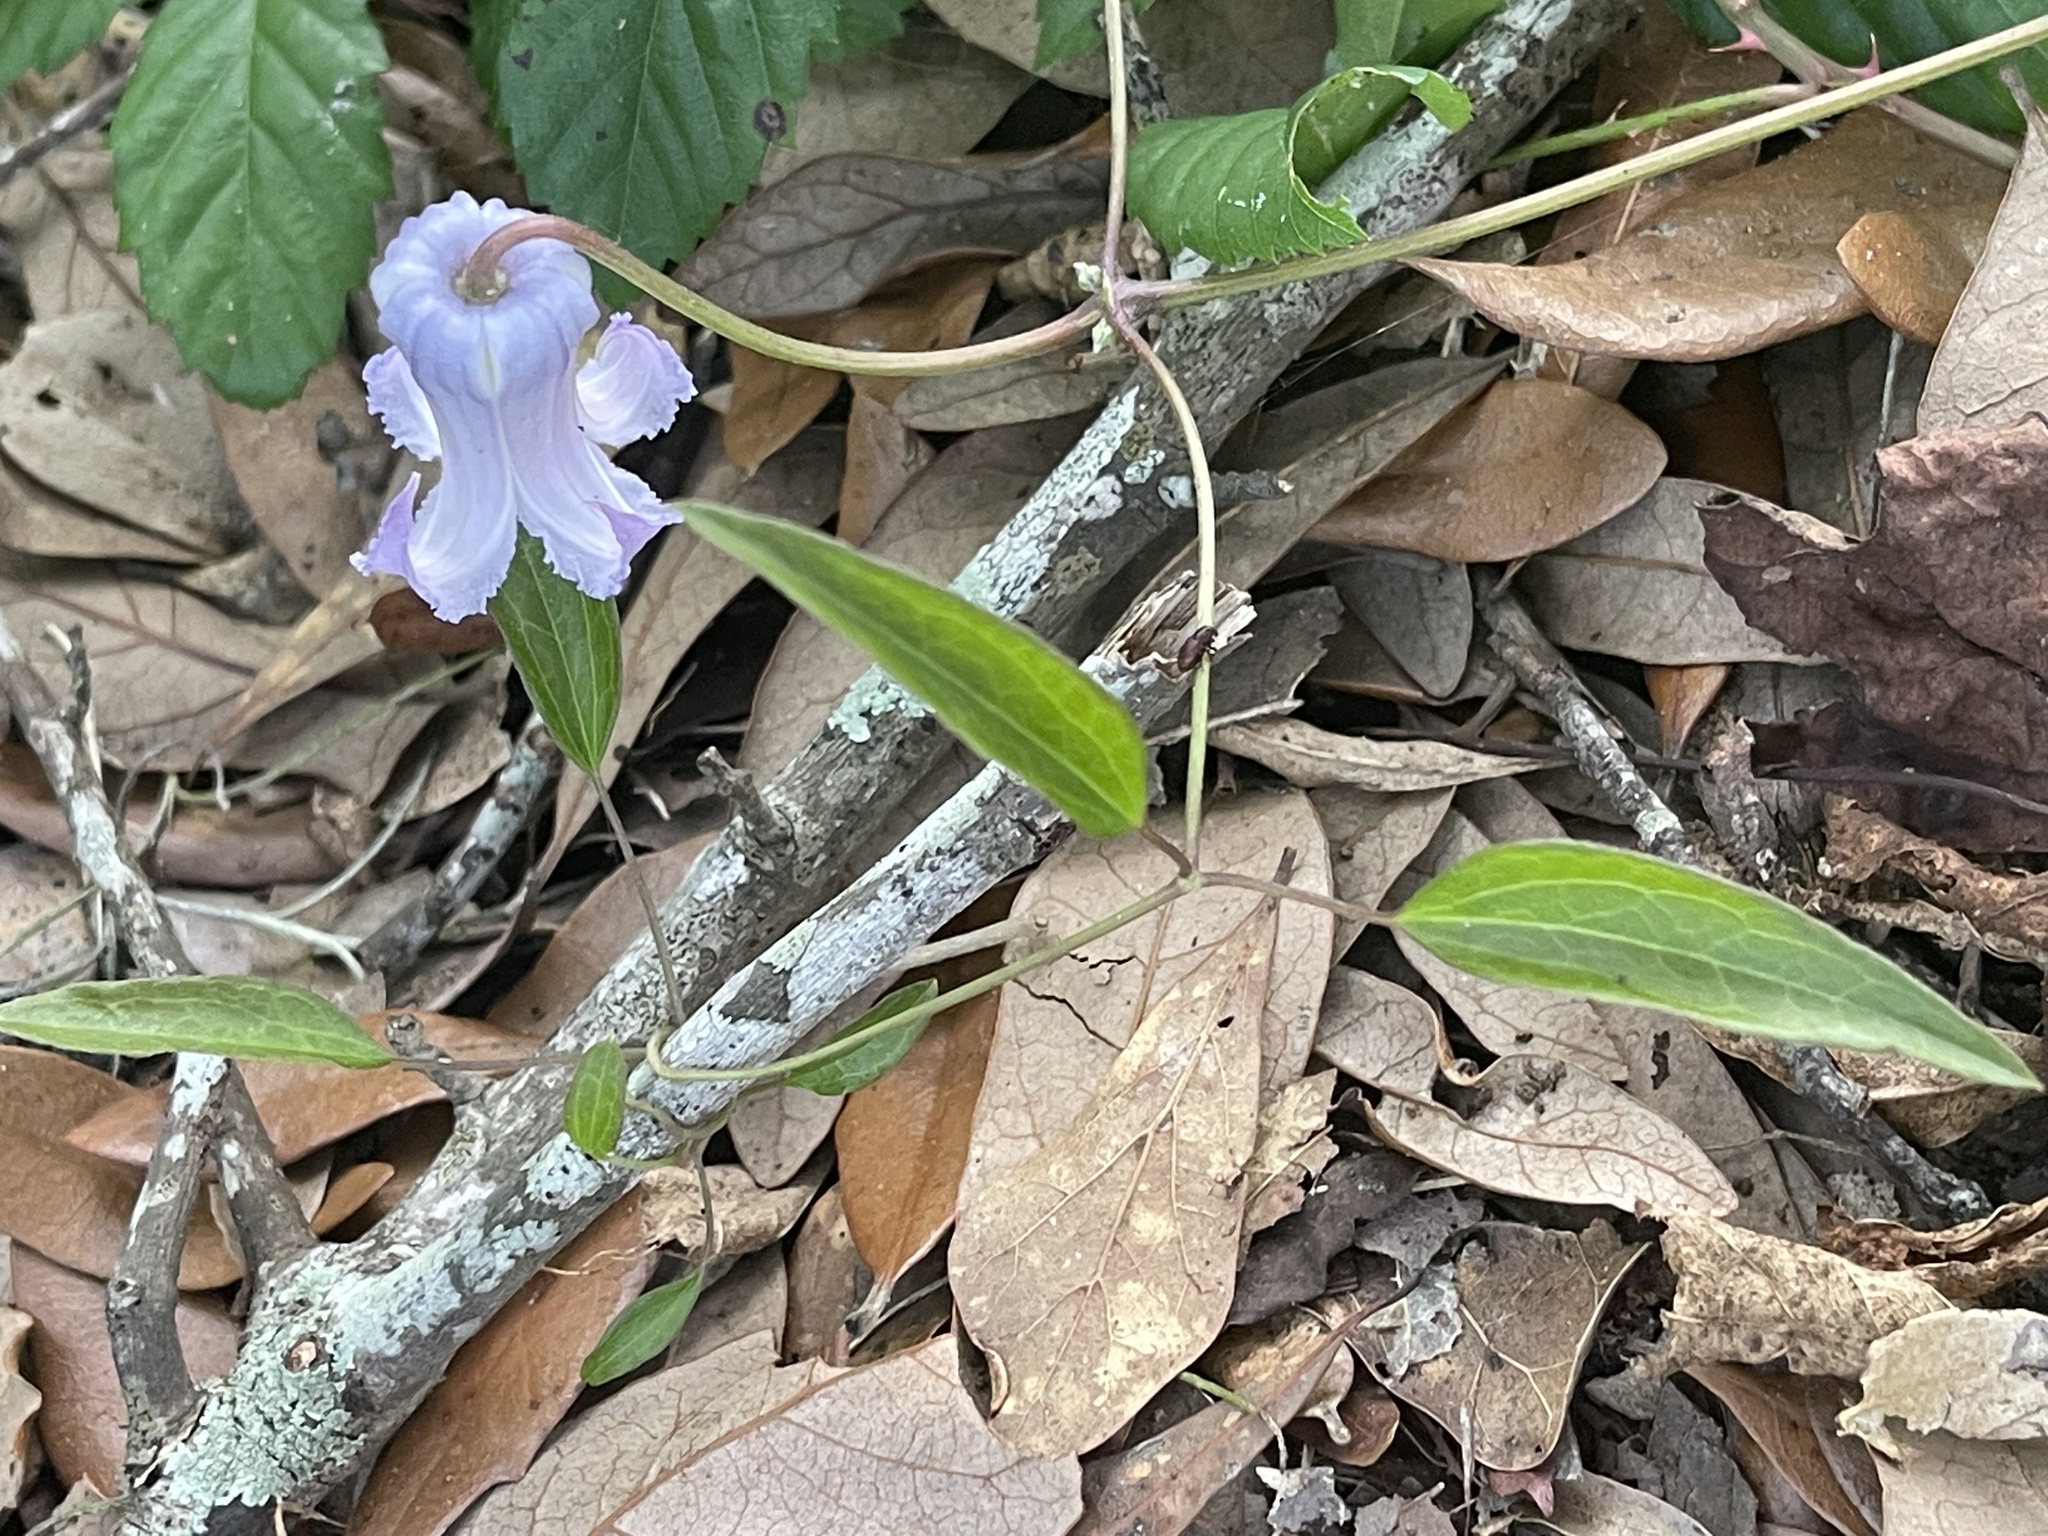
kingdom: Plantae
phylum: Tracheophyta
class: Magnoliopsida
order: Ranunculales
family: Ranunculaceae
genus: Clematis
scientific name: Clematis crispa
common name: Curly clematis
